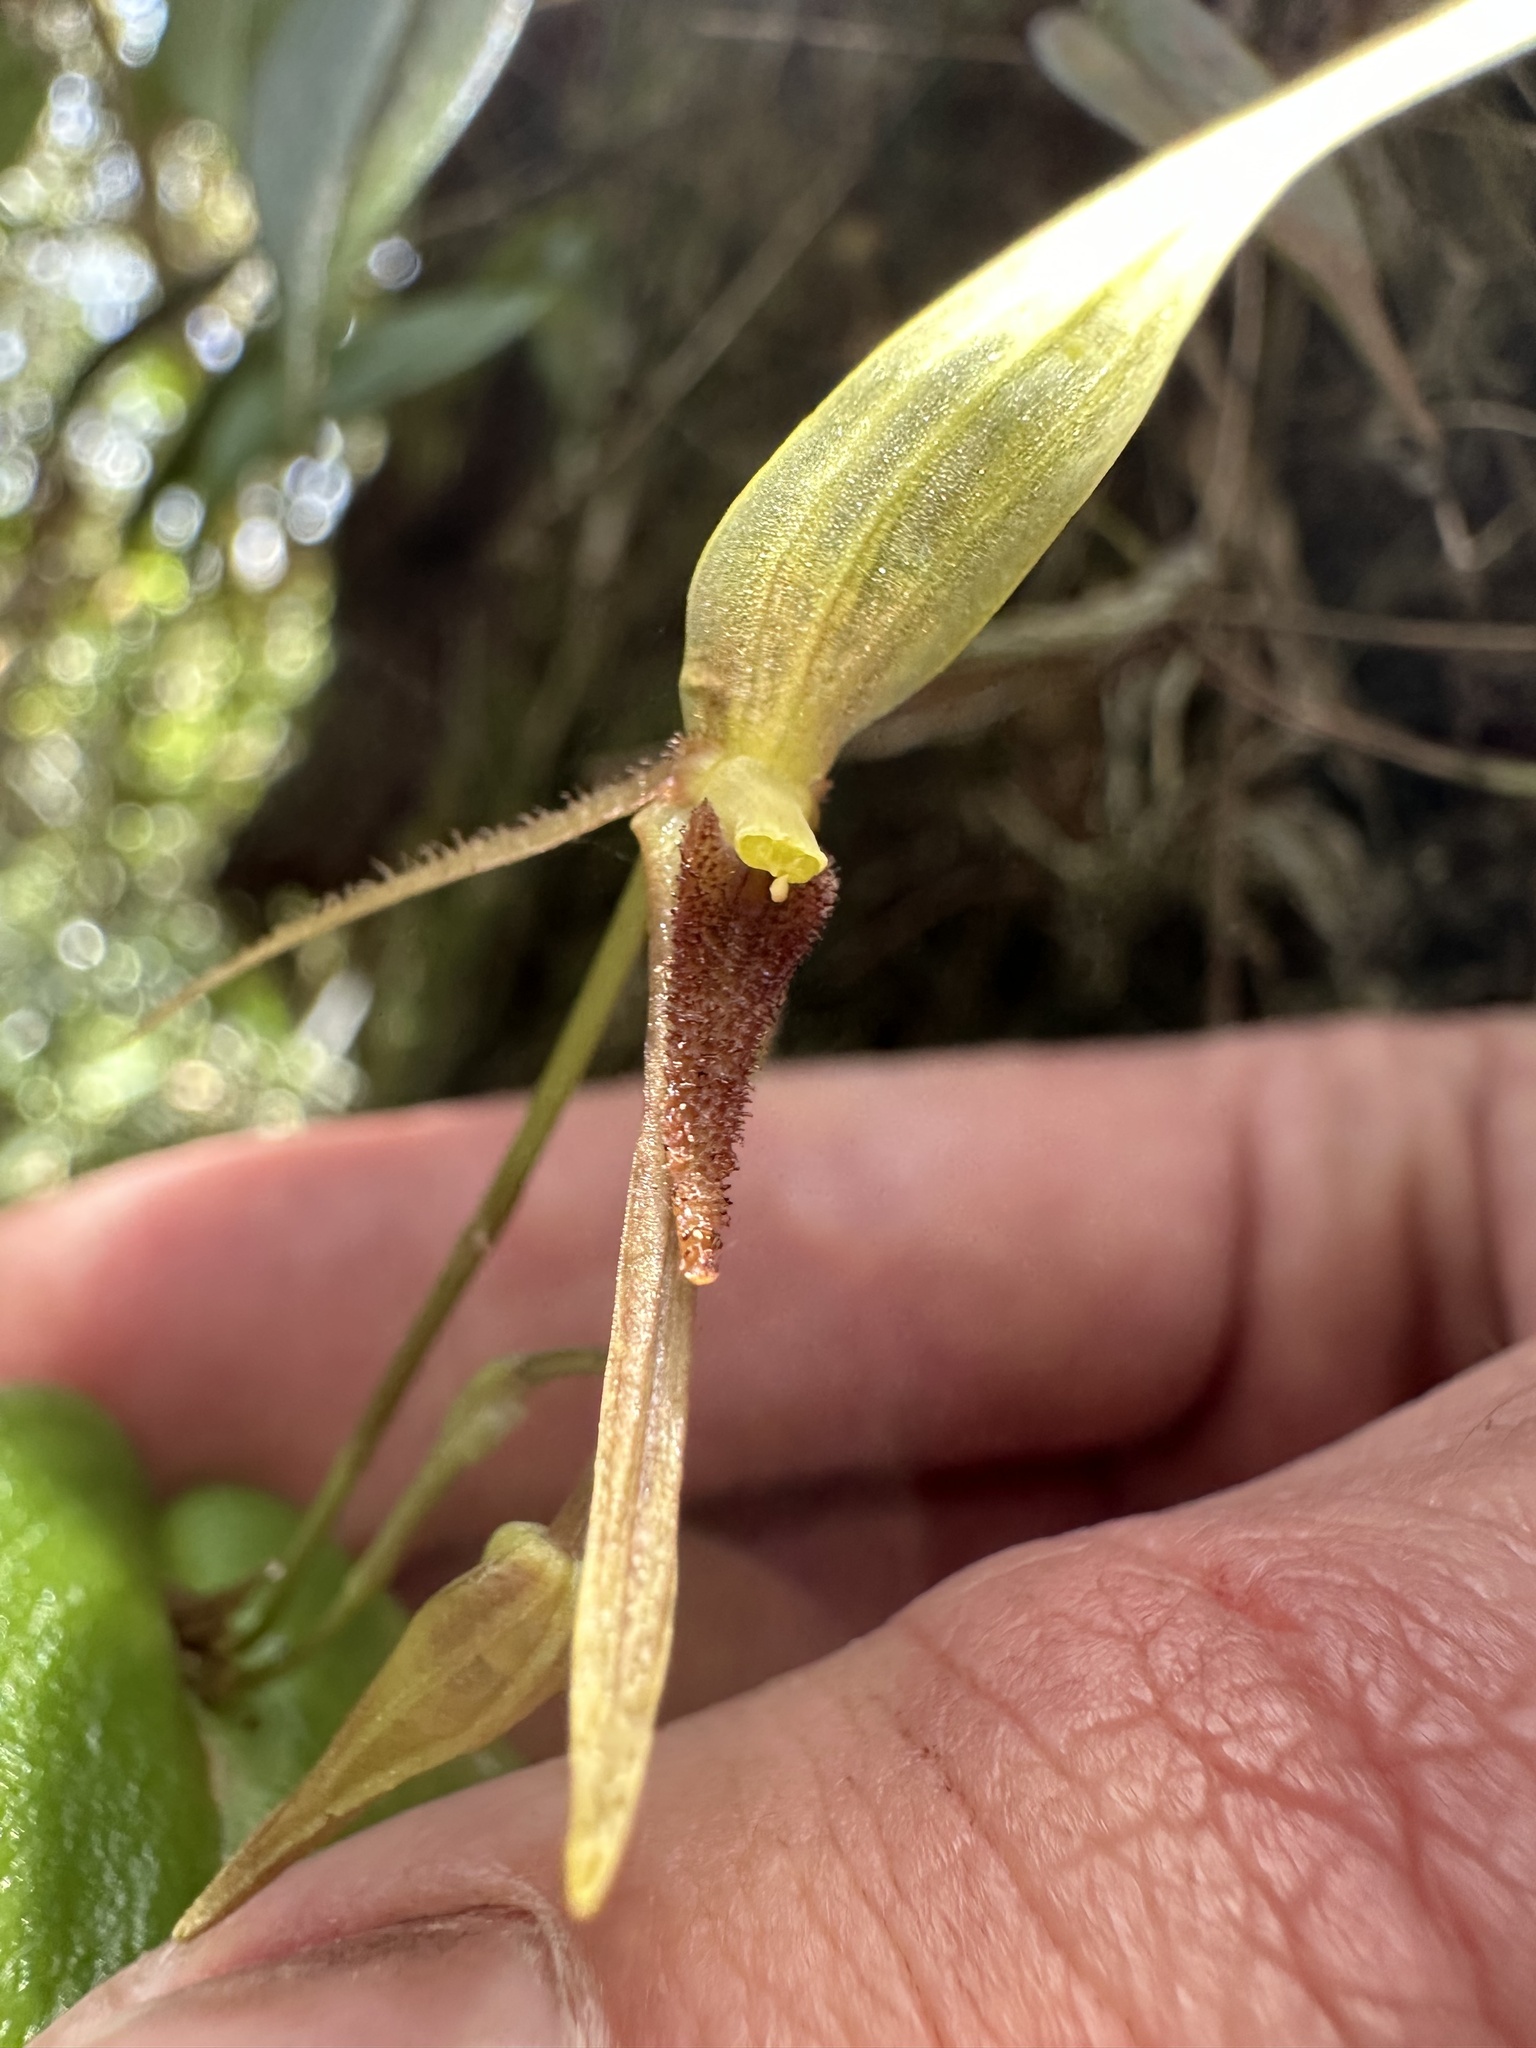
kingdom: Plantae
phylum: Tracheophyta
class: Liliopsida
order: Asparagales
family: Orchidaceae
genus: Pleurothallis
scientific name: Pleurothallis killipii
